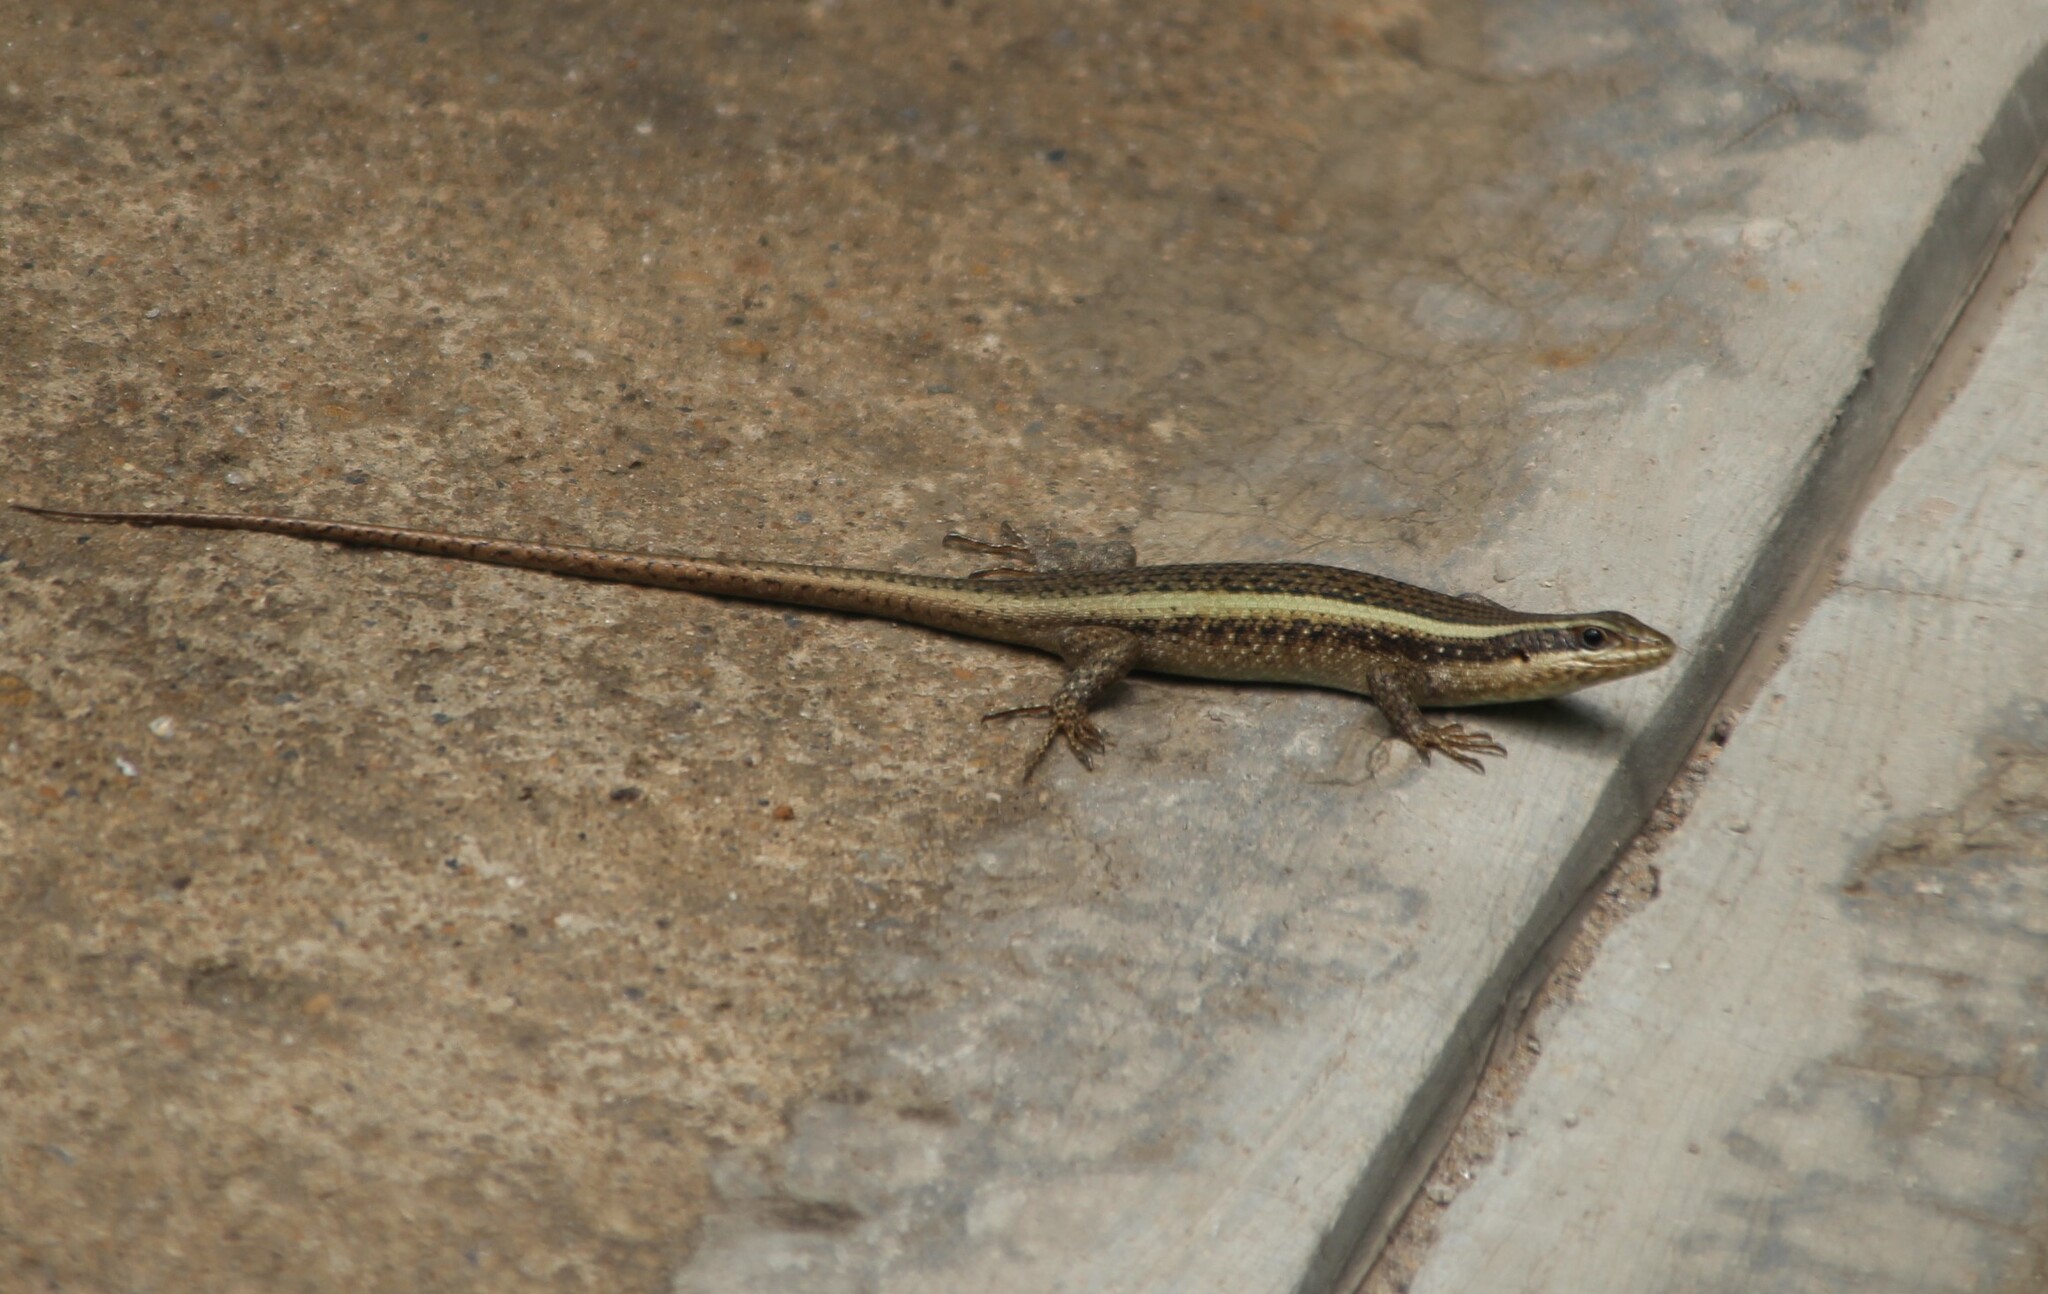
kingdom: Animalia
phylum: Chordata
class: Squamata
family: Scincidae
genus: Trachylepis
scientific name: Trachylepis striata
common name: African striped mabuya
